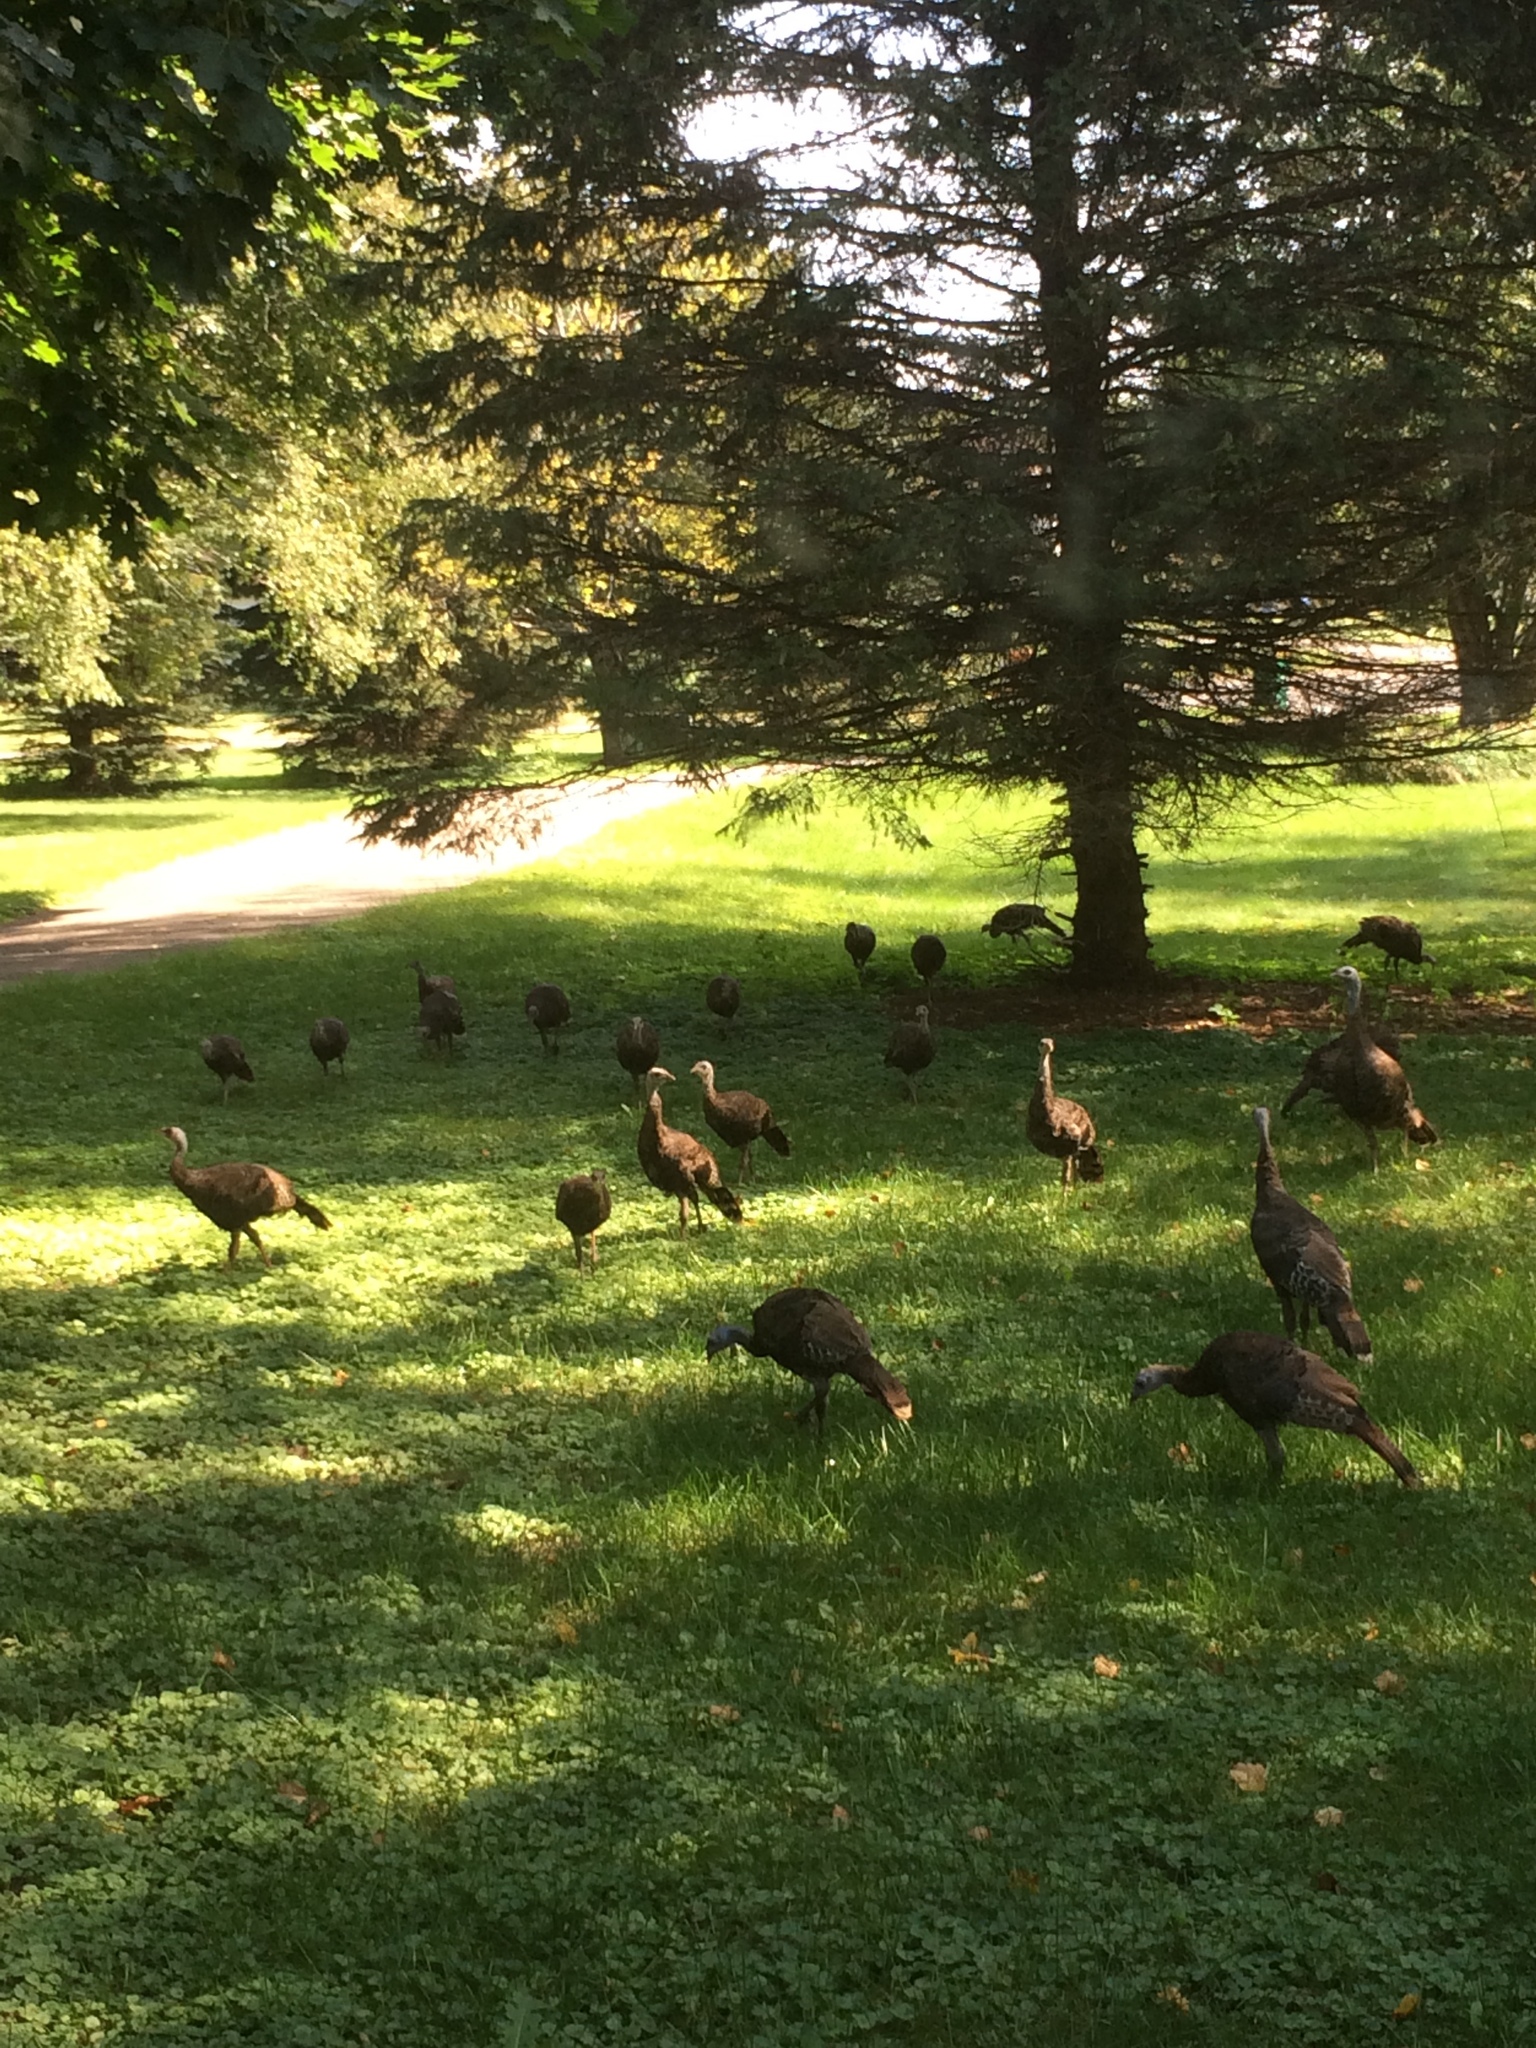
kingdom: Animalia
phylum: Chordata
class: Aves
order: Galliformes
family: Phasianidae
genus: Meleagris
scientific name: Meleagris gallopavo
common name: Wild turkey
